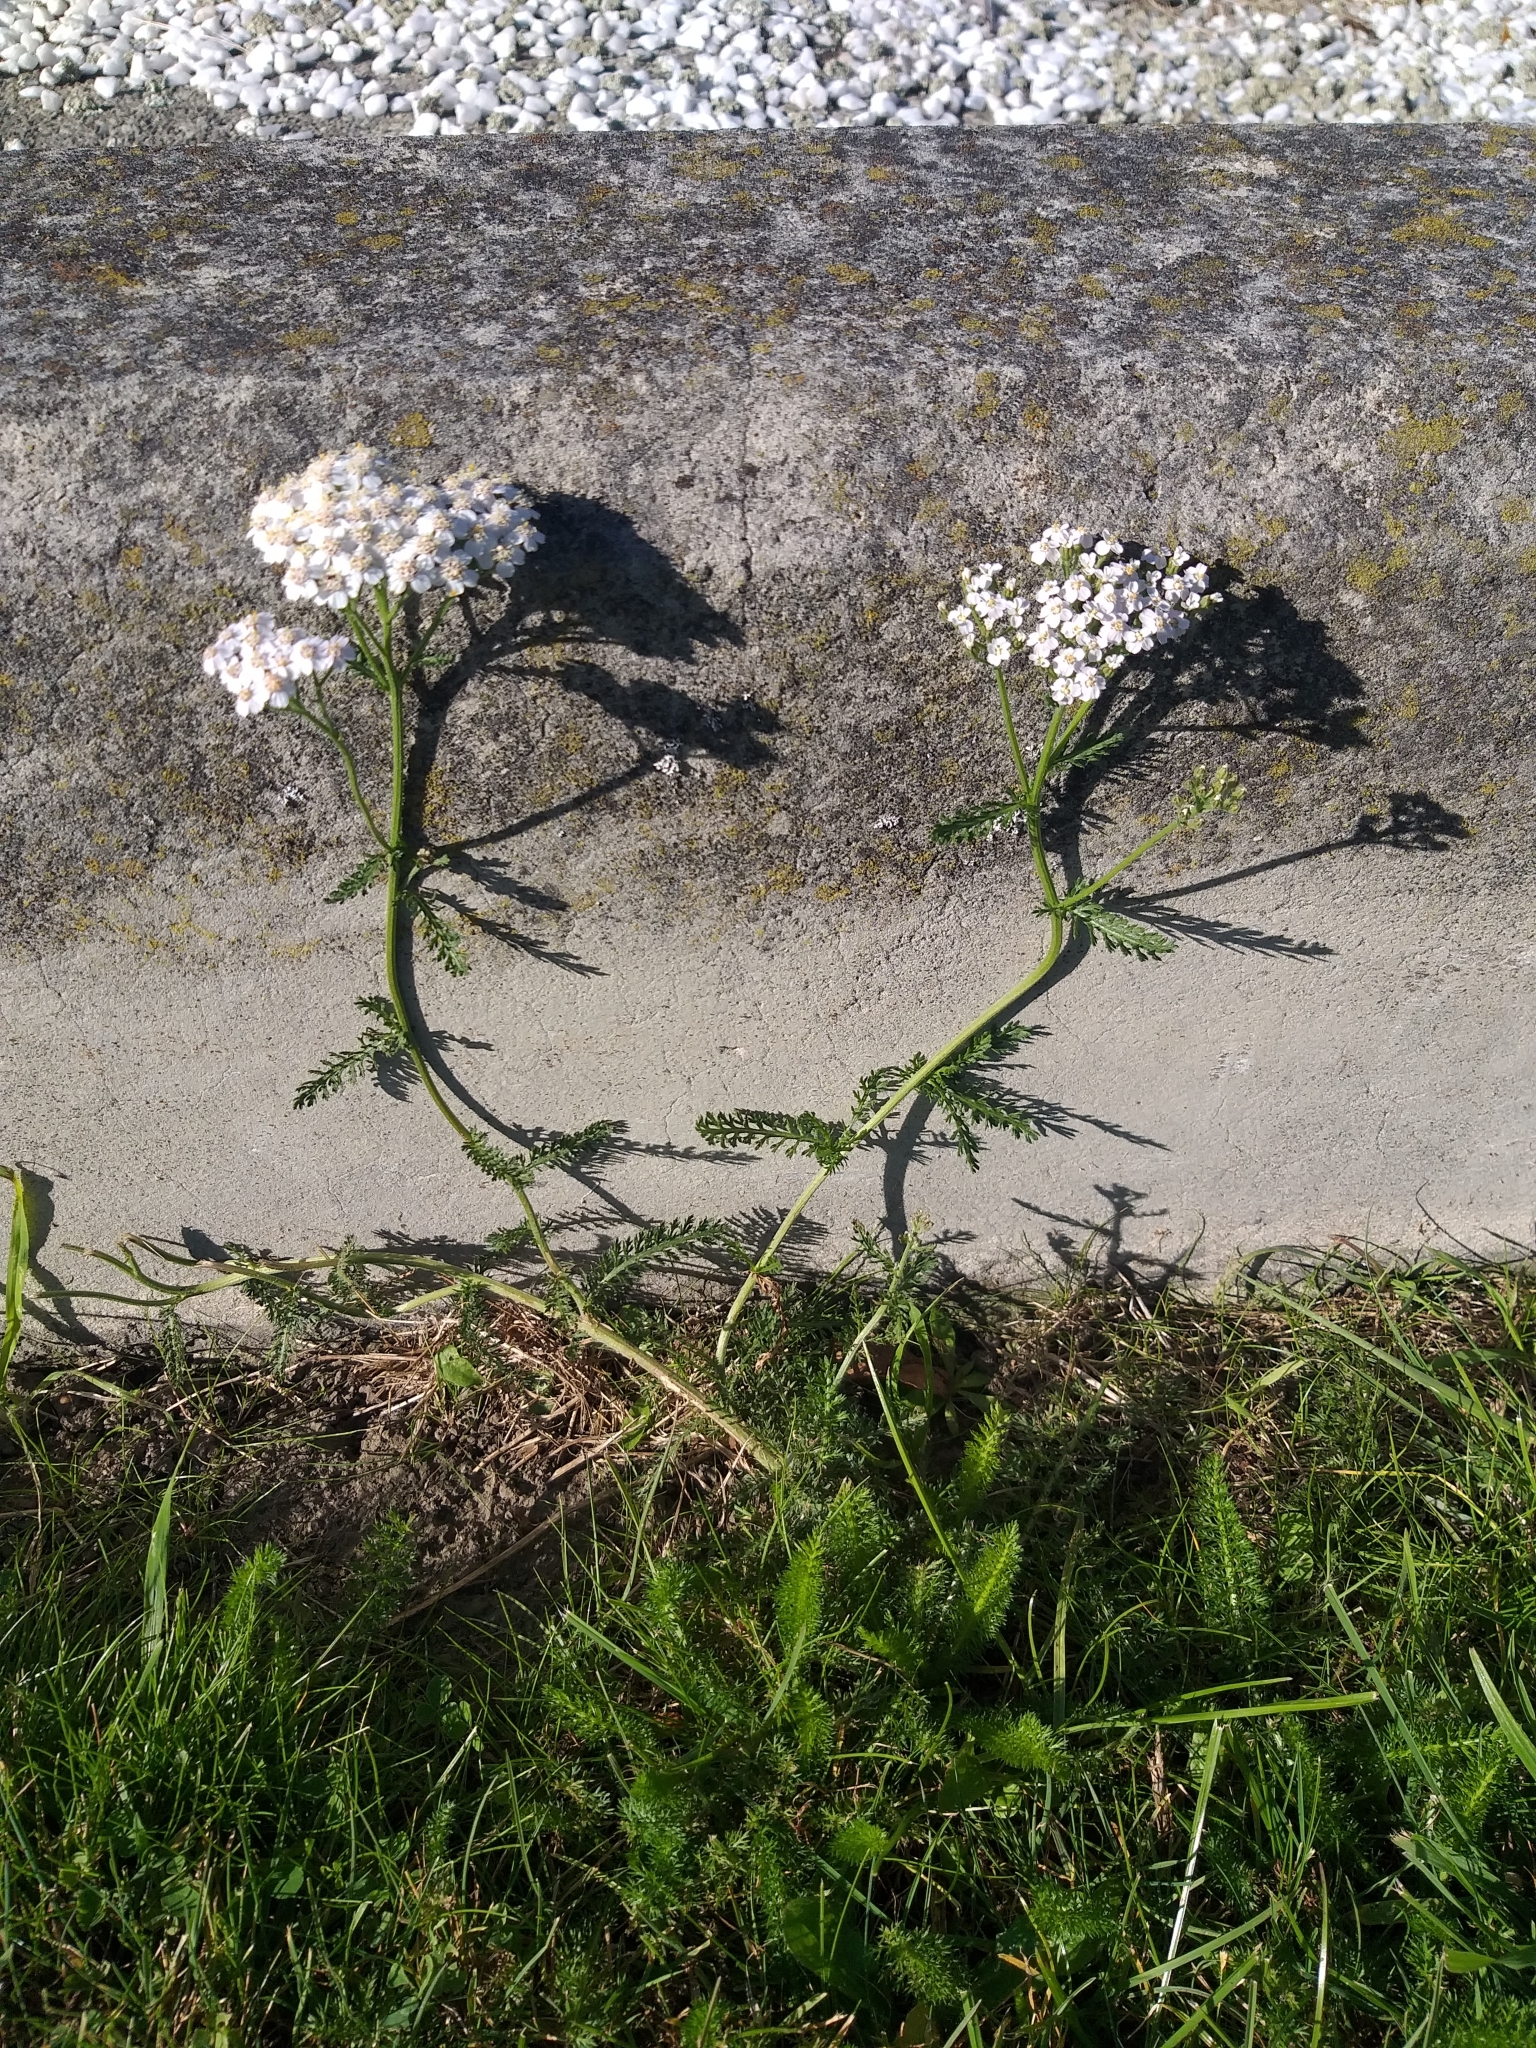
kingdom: Plantae
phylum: Tracheophyta
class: Magnoliopsida
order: Asterales
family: Asteraceae
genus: Achillea
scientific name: Achillea millefolium
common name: Yarrow
